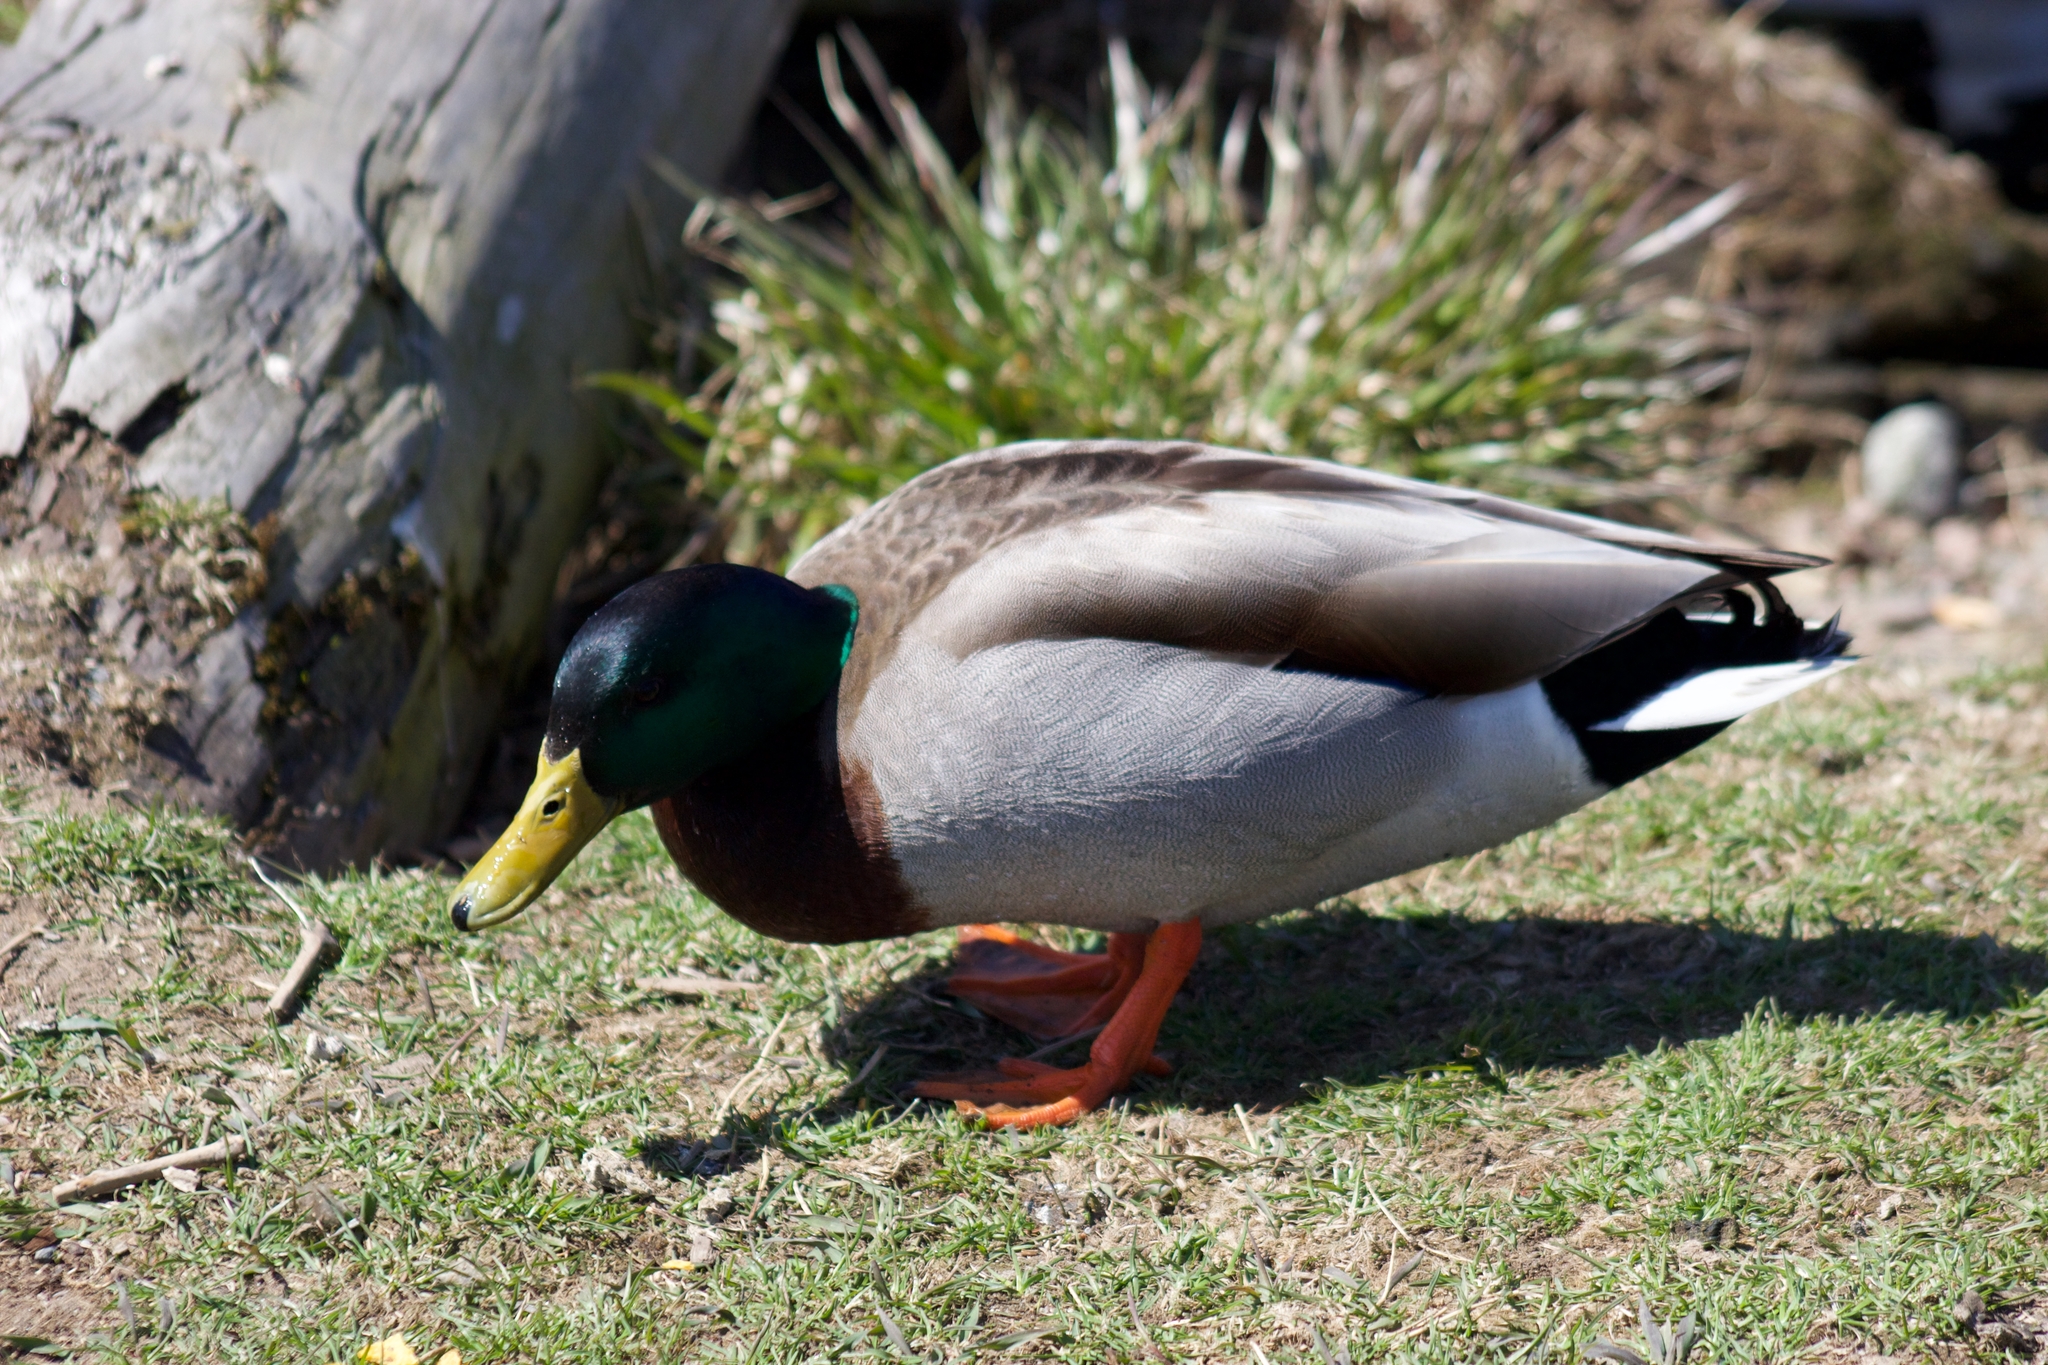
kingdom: Animalia
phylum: Chordata
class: Aves
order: Anseriformes
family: Anatidae
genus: Anas
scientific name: Anas platyrhynchos
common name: Mallard
